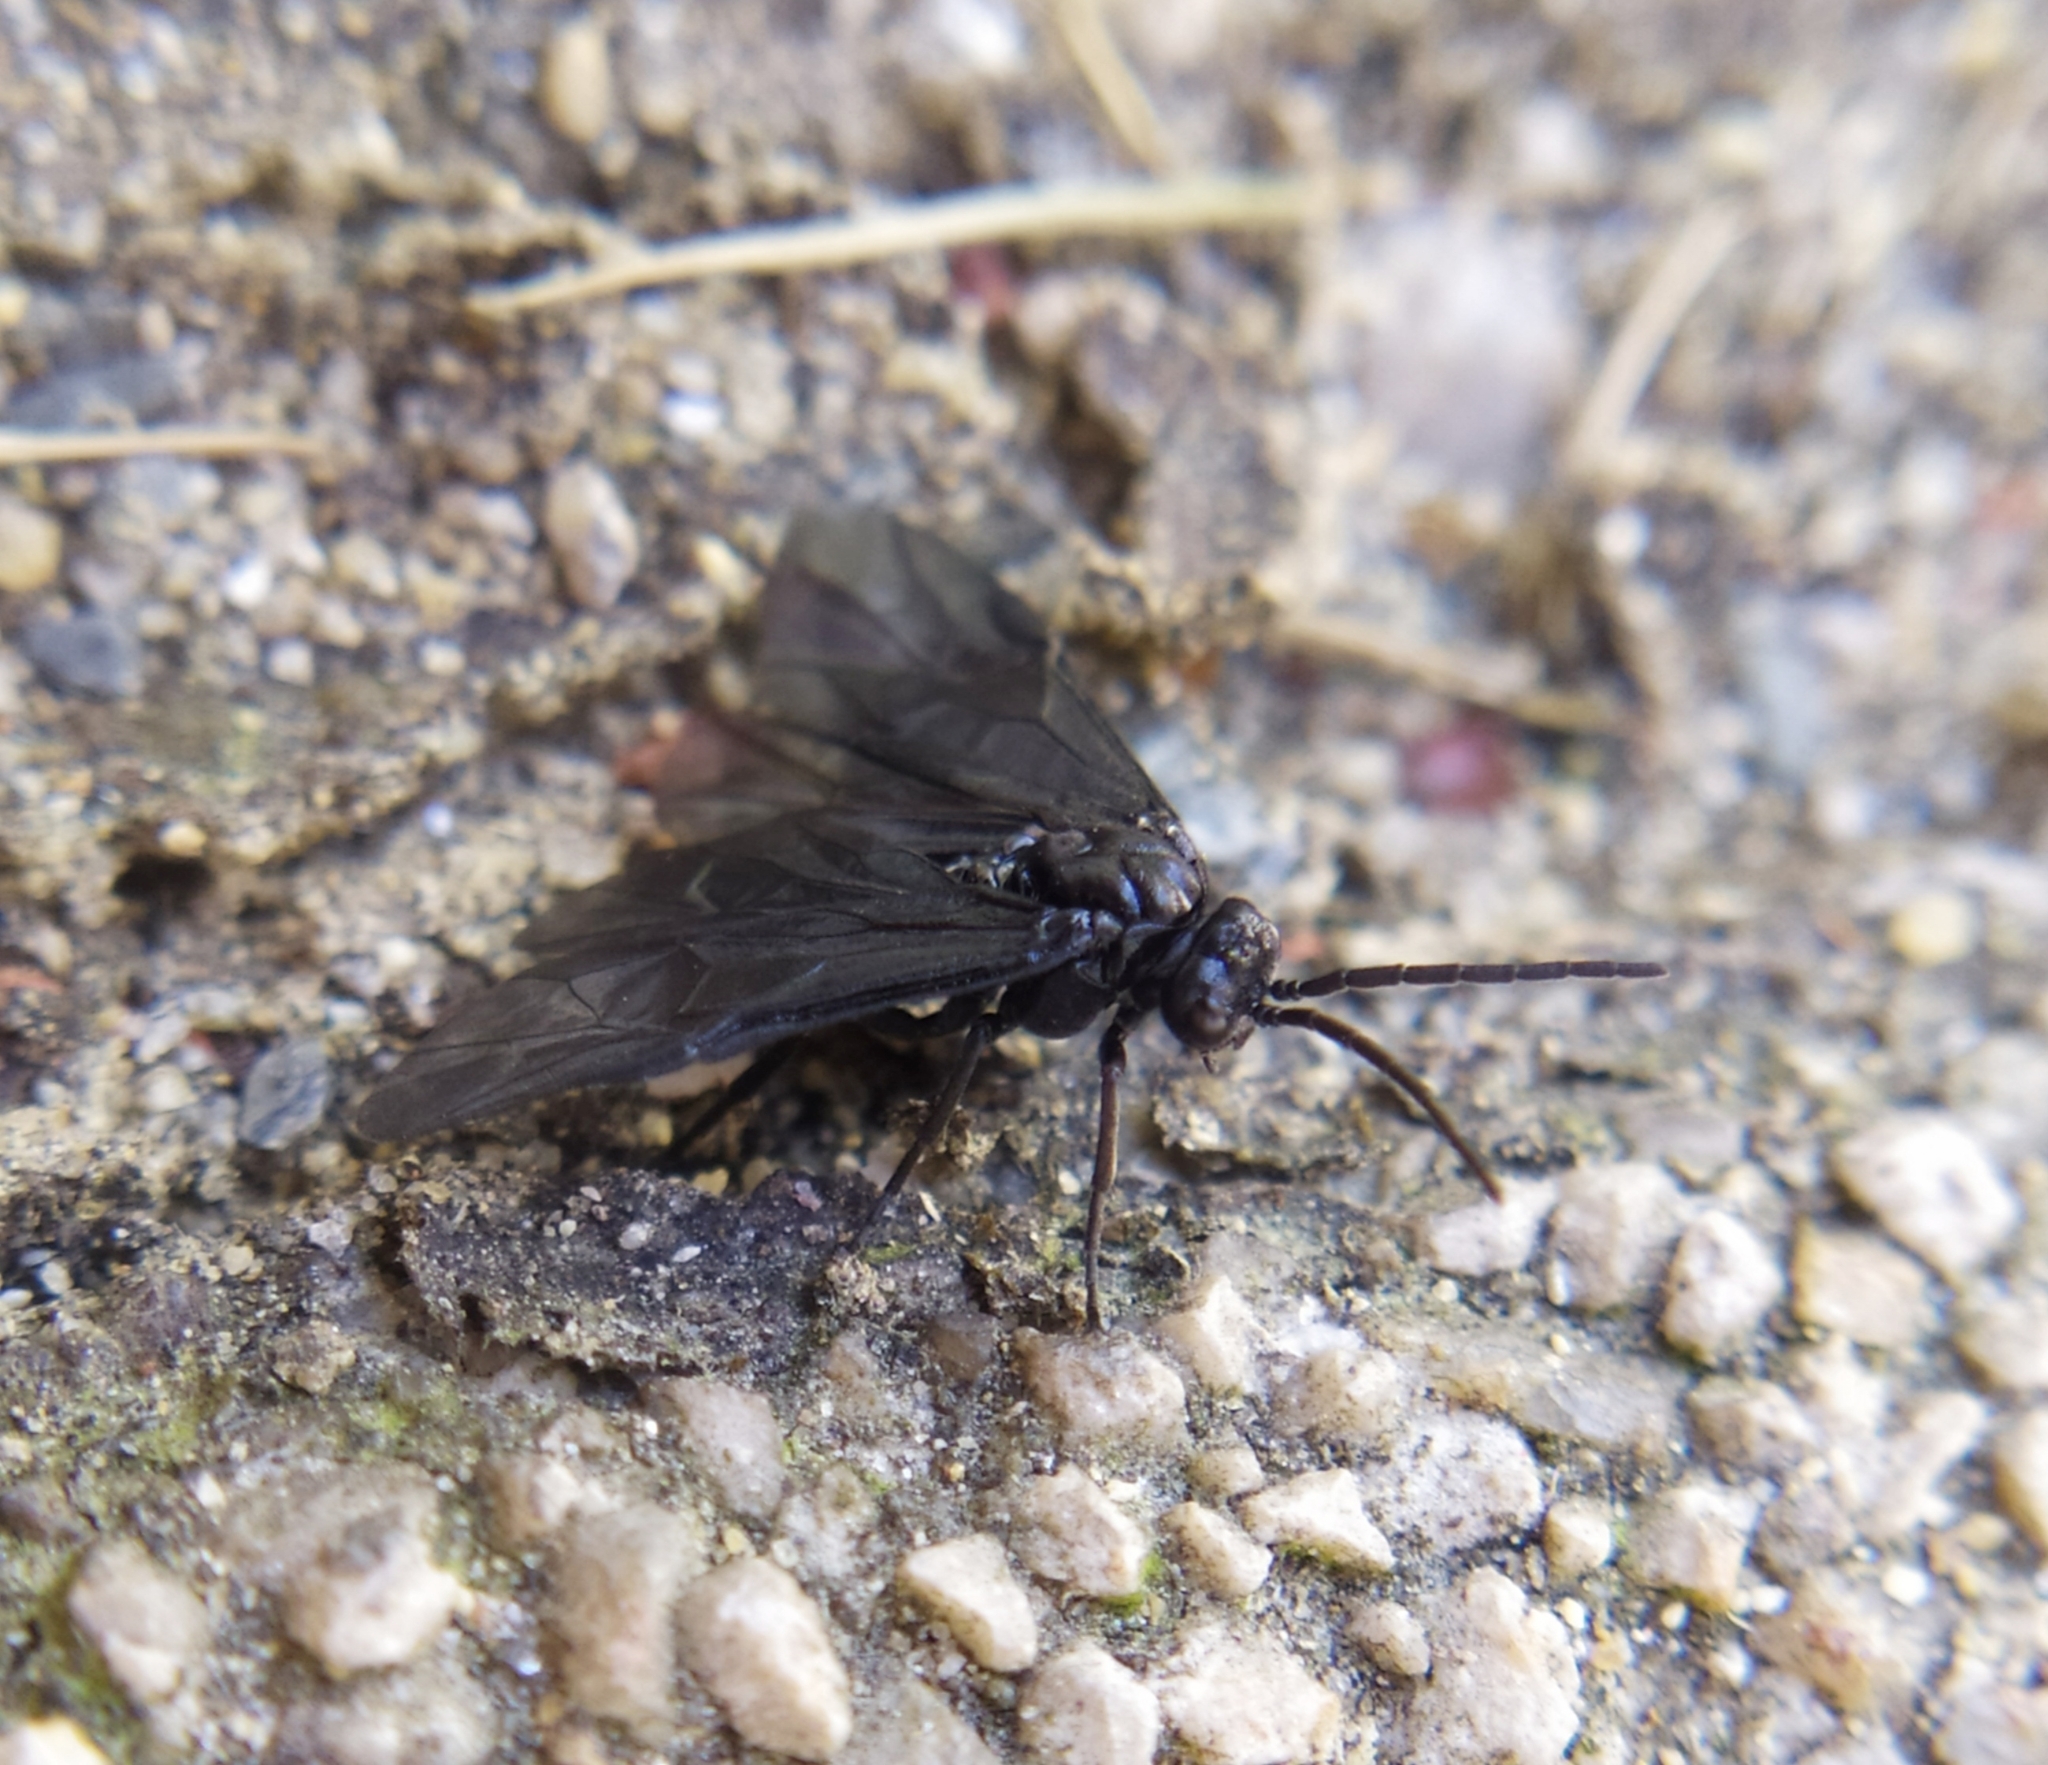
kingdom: Animalia
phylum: Arthropoda
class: Insecta
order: Hymenoptera
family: Tenthredinidae
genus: Rhadinoceraea
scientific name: Rhadinoceraea micans
